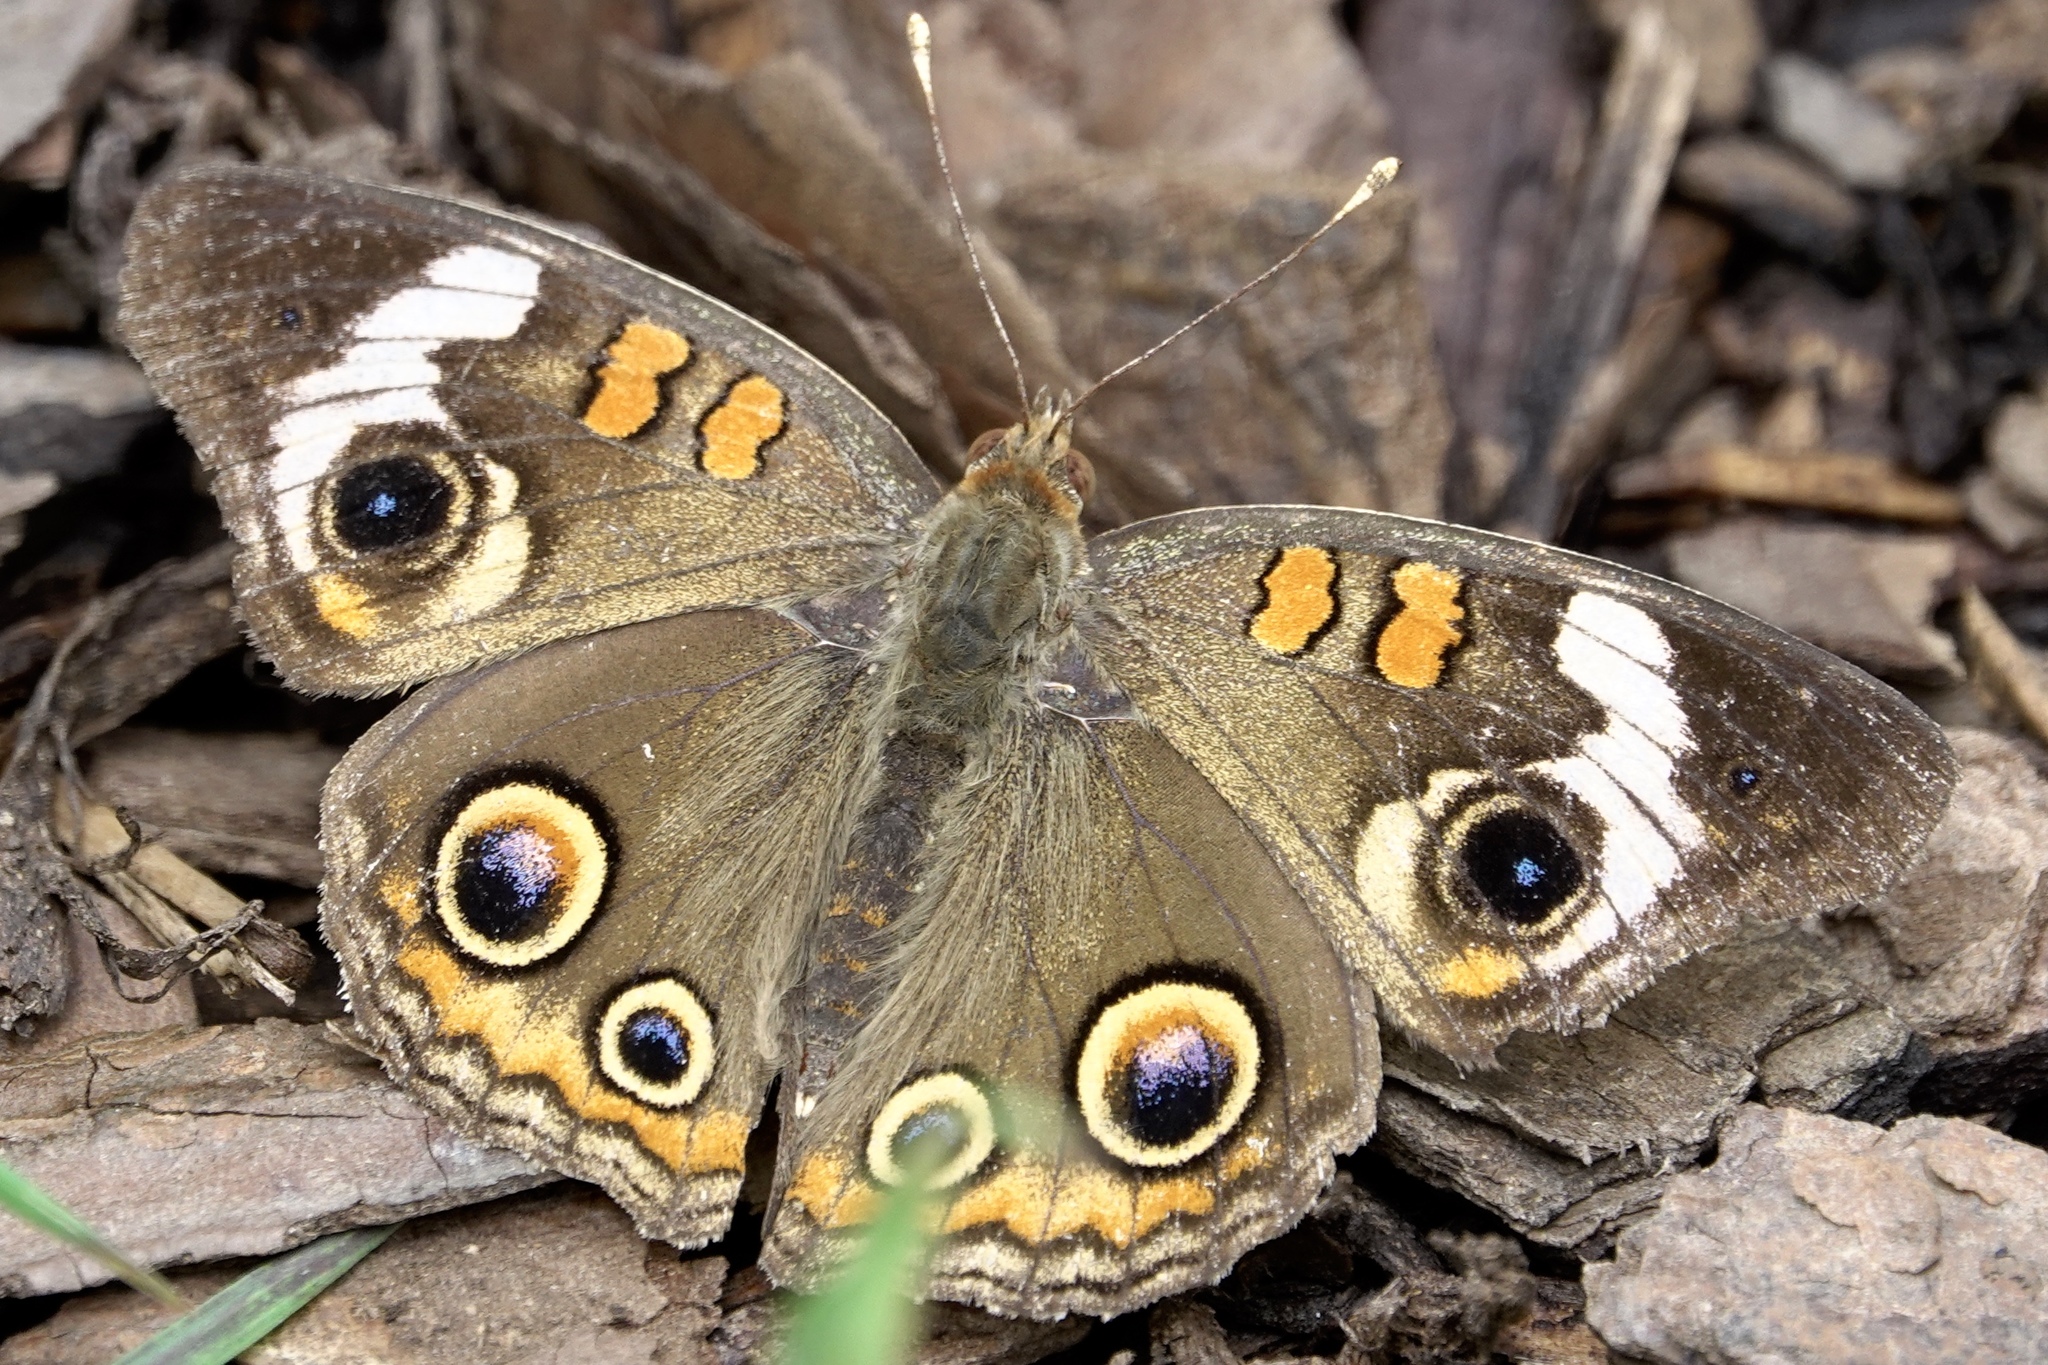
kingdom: Animalia
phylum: Arthropoda
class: Insecta
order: Lepidoptera
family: Nymphalidae
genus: Junonia
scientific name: Junonia coenia
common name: Common buckeye
